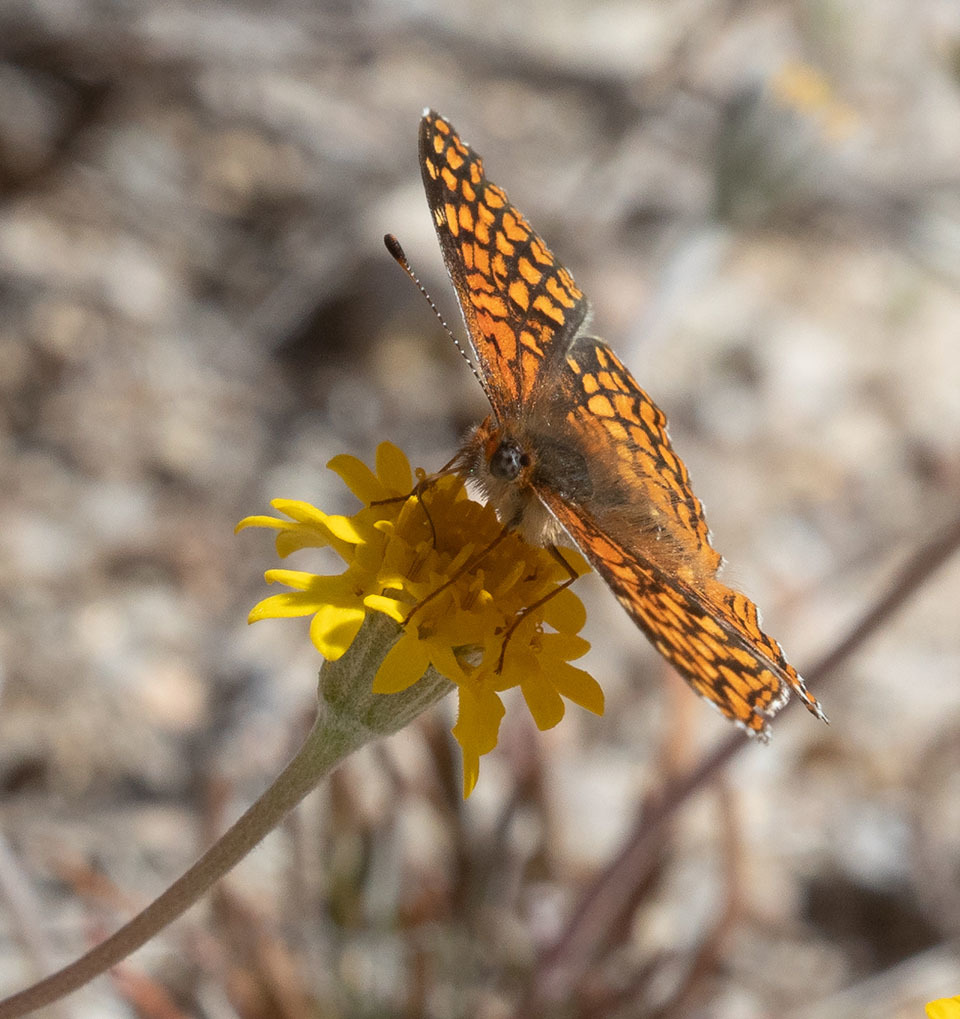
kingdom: Animalia
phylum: Arthropoda
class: Insecta
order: Lepidoptera
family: Nymphalidae
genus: Chlosyne
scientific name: Chlosyne gabbii
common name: Gabb's checkerspot
